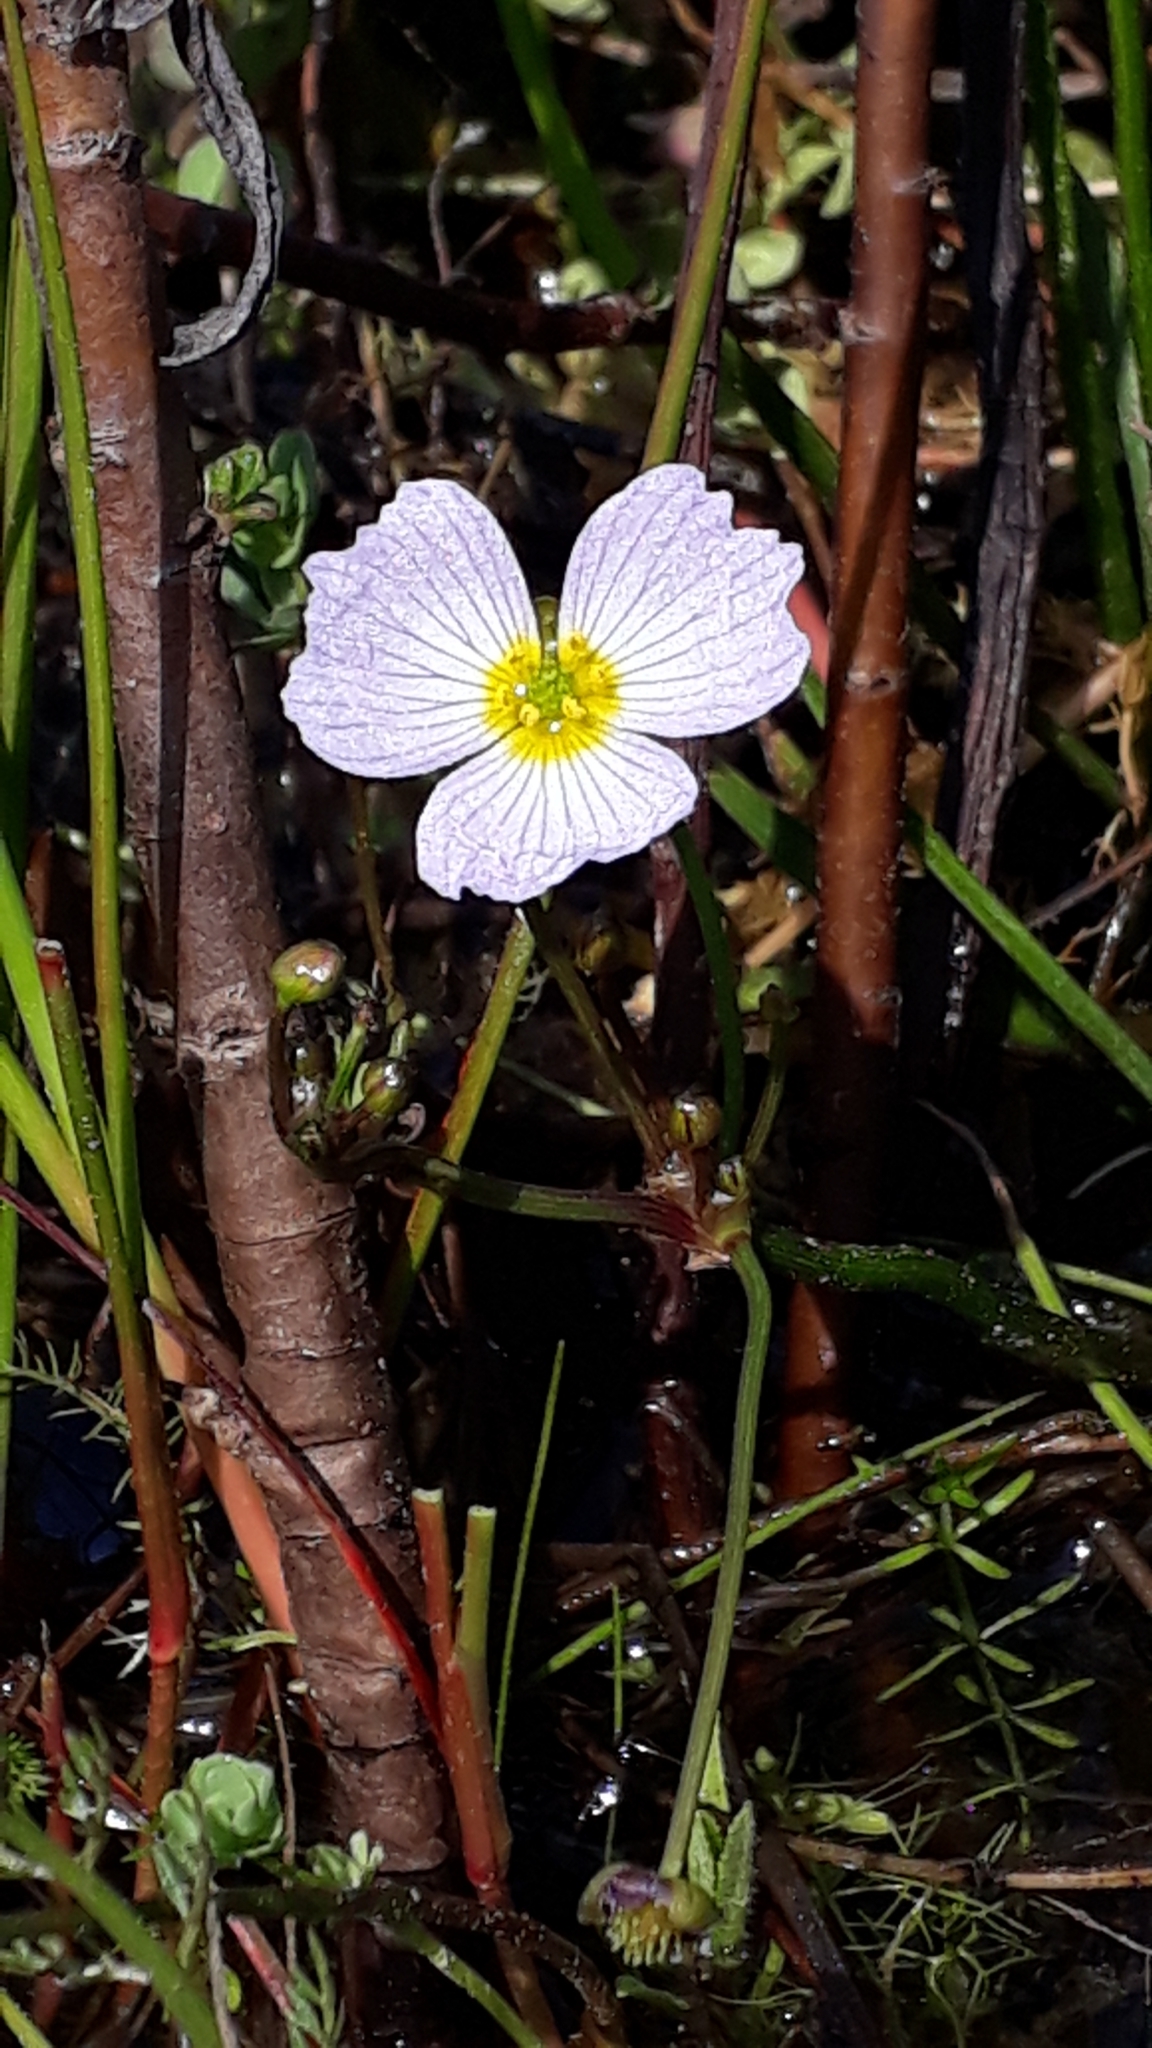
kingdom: Plantae
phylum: Tracheophyta
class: Liliopsida
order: Alismatales
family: Alismataceae
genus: Baldellia
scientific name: Baldellia ranunculoides
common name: Lesser water-plantain
